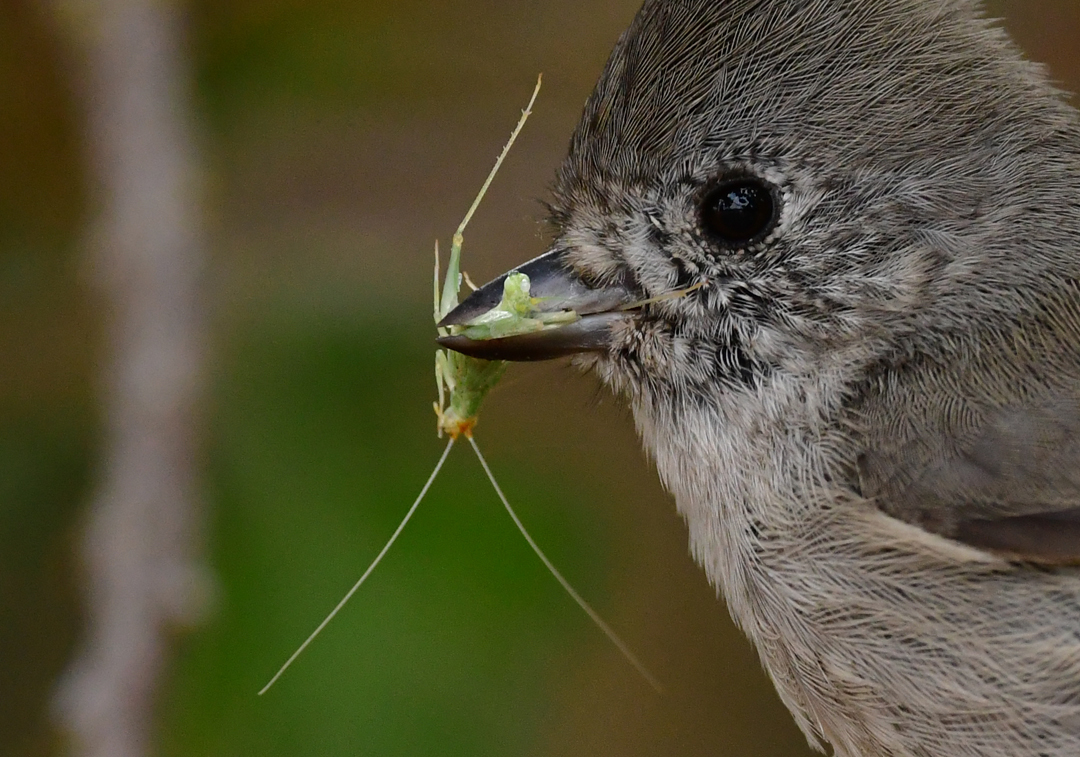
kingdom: Animalia
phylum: Chordata
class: Aves
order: Passeriformes
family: Paridae
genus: Baeolophus
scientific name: Baeolophus inornatus
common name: Oak titmouse
